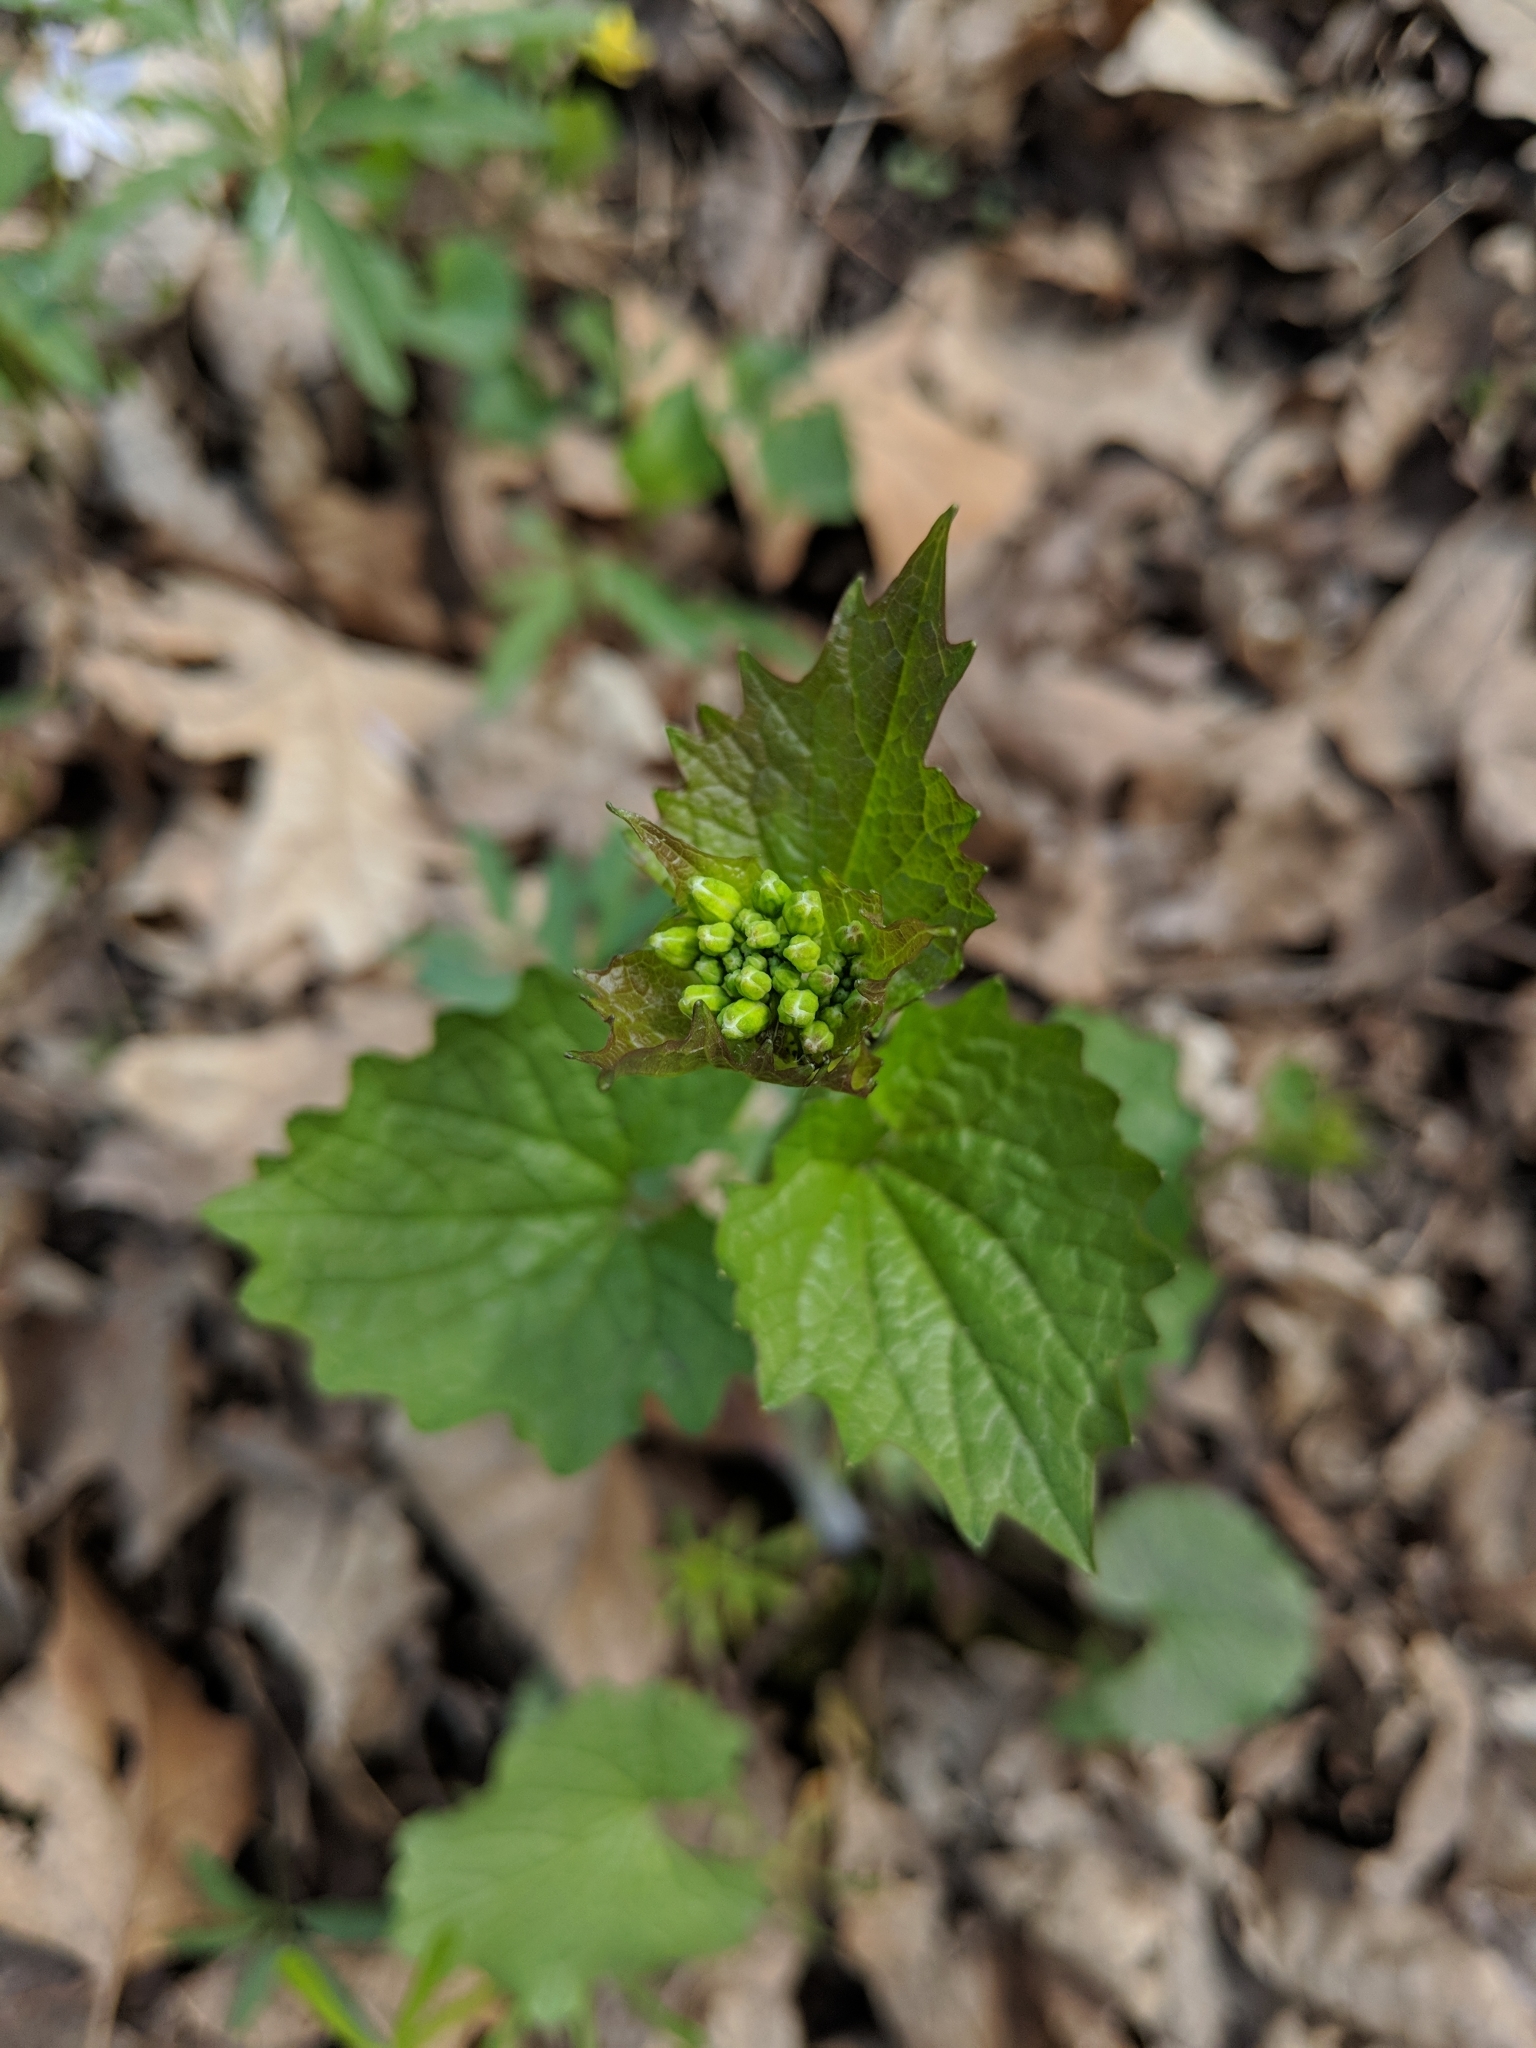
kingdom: Plantae
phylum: Tracheophyta
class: Magnoliopsida
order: Brassicales
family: Brassicaceae
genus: Alliaria
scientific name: Alliaria petiolata
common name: Garlic mustard
